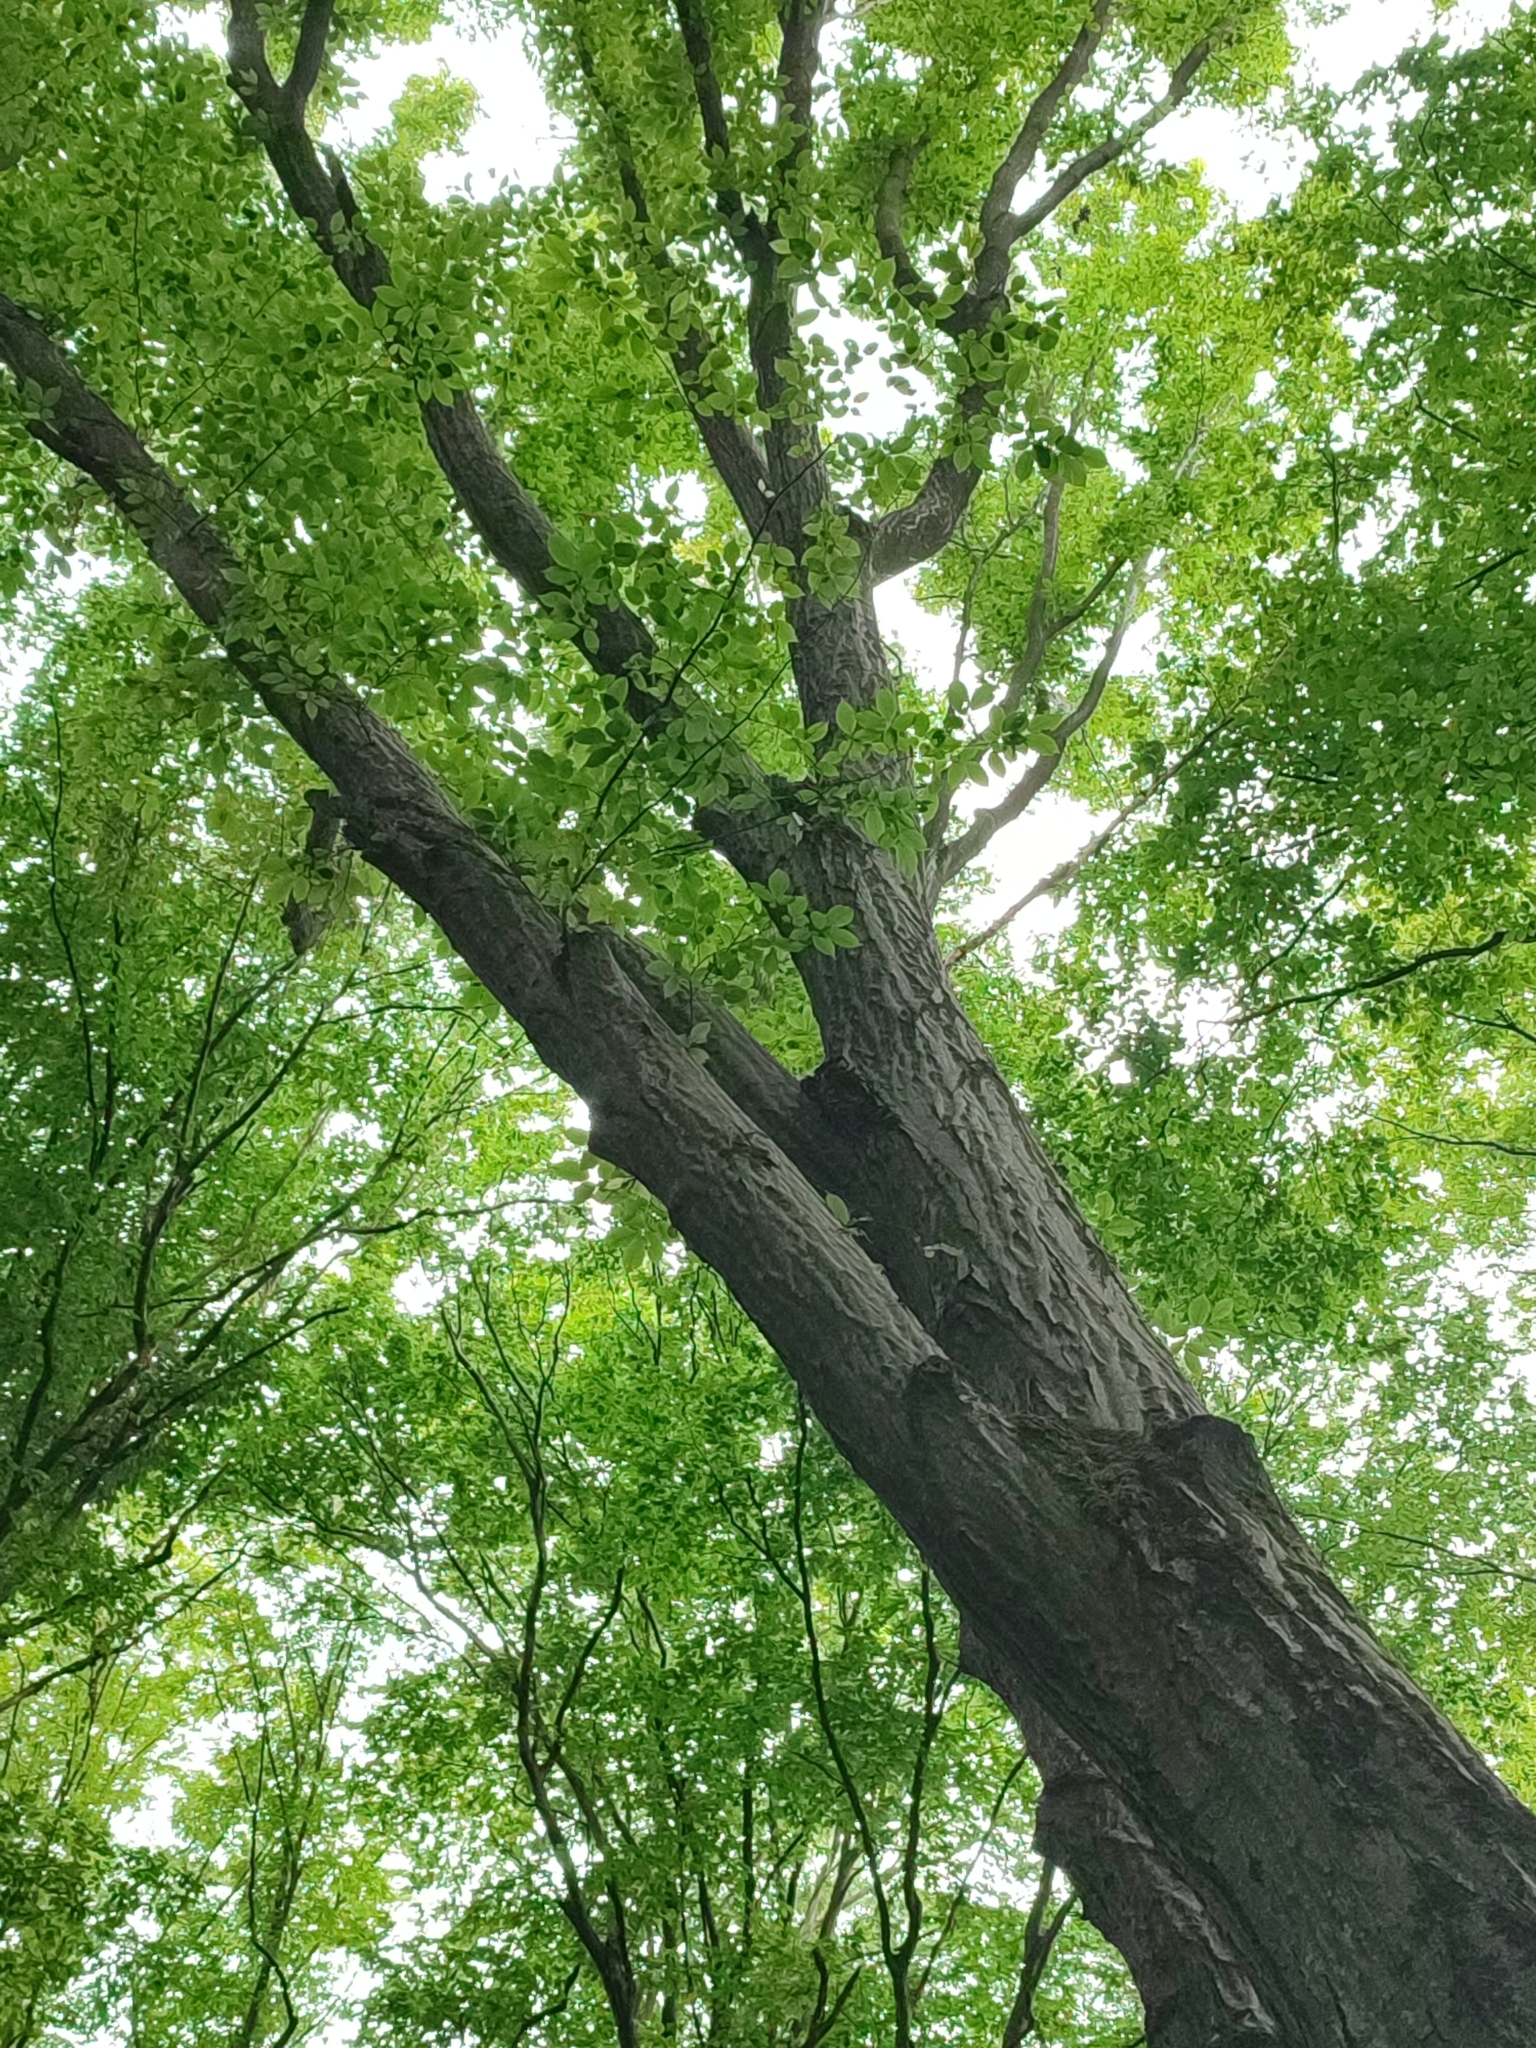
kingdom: Plantae
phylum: Tracheophyta
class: Magnoliopsida
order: Fagales
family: Betulaceae
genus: Carpinus
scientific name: Carpinus betulus
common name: Hornbeam
